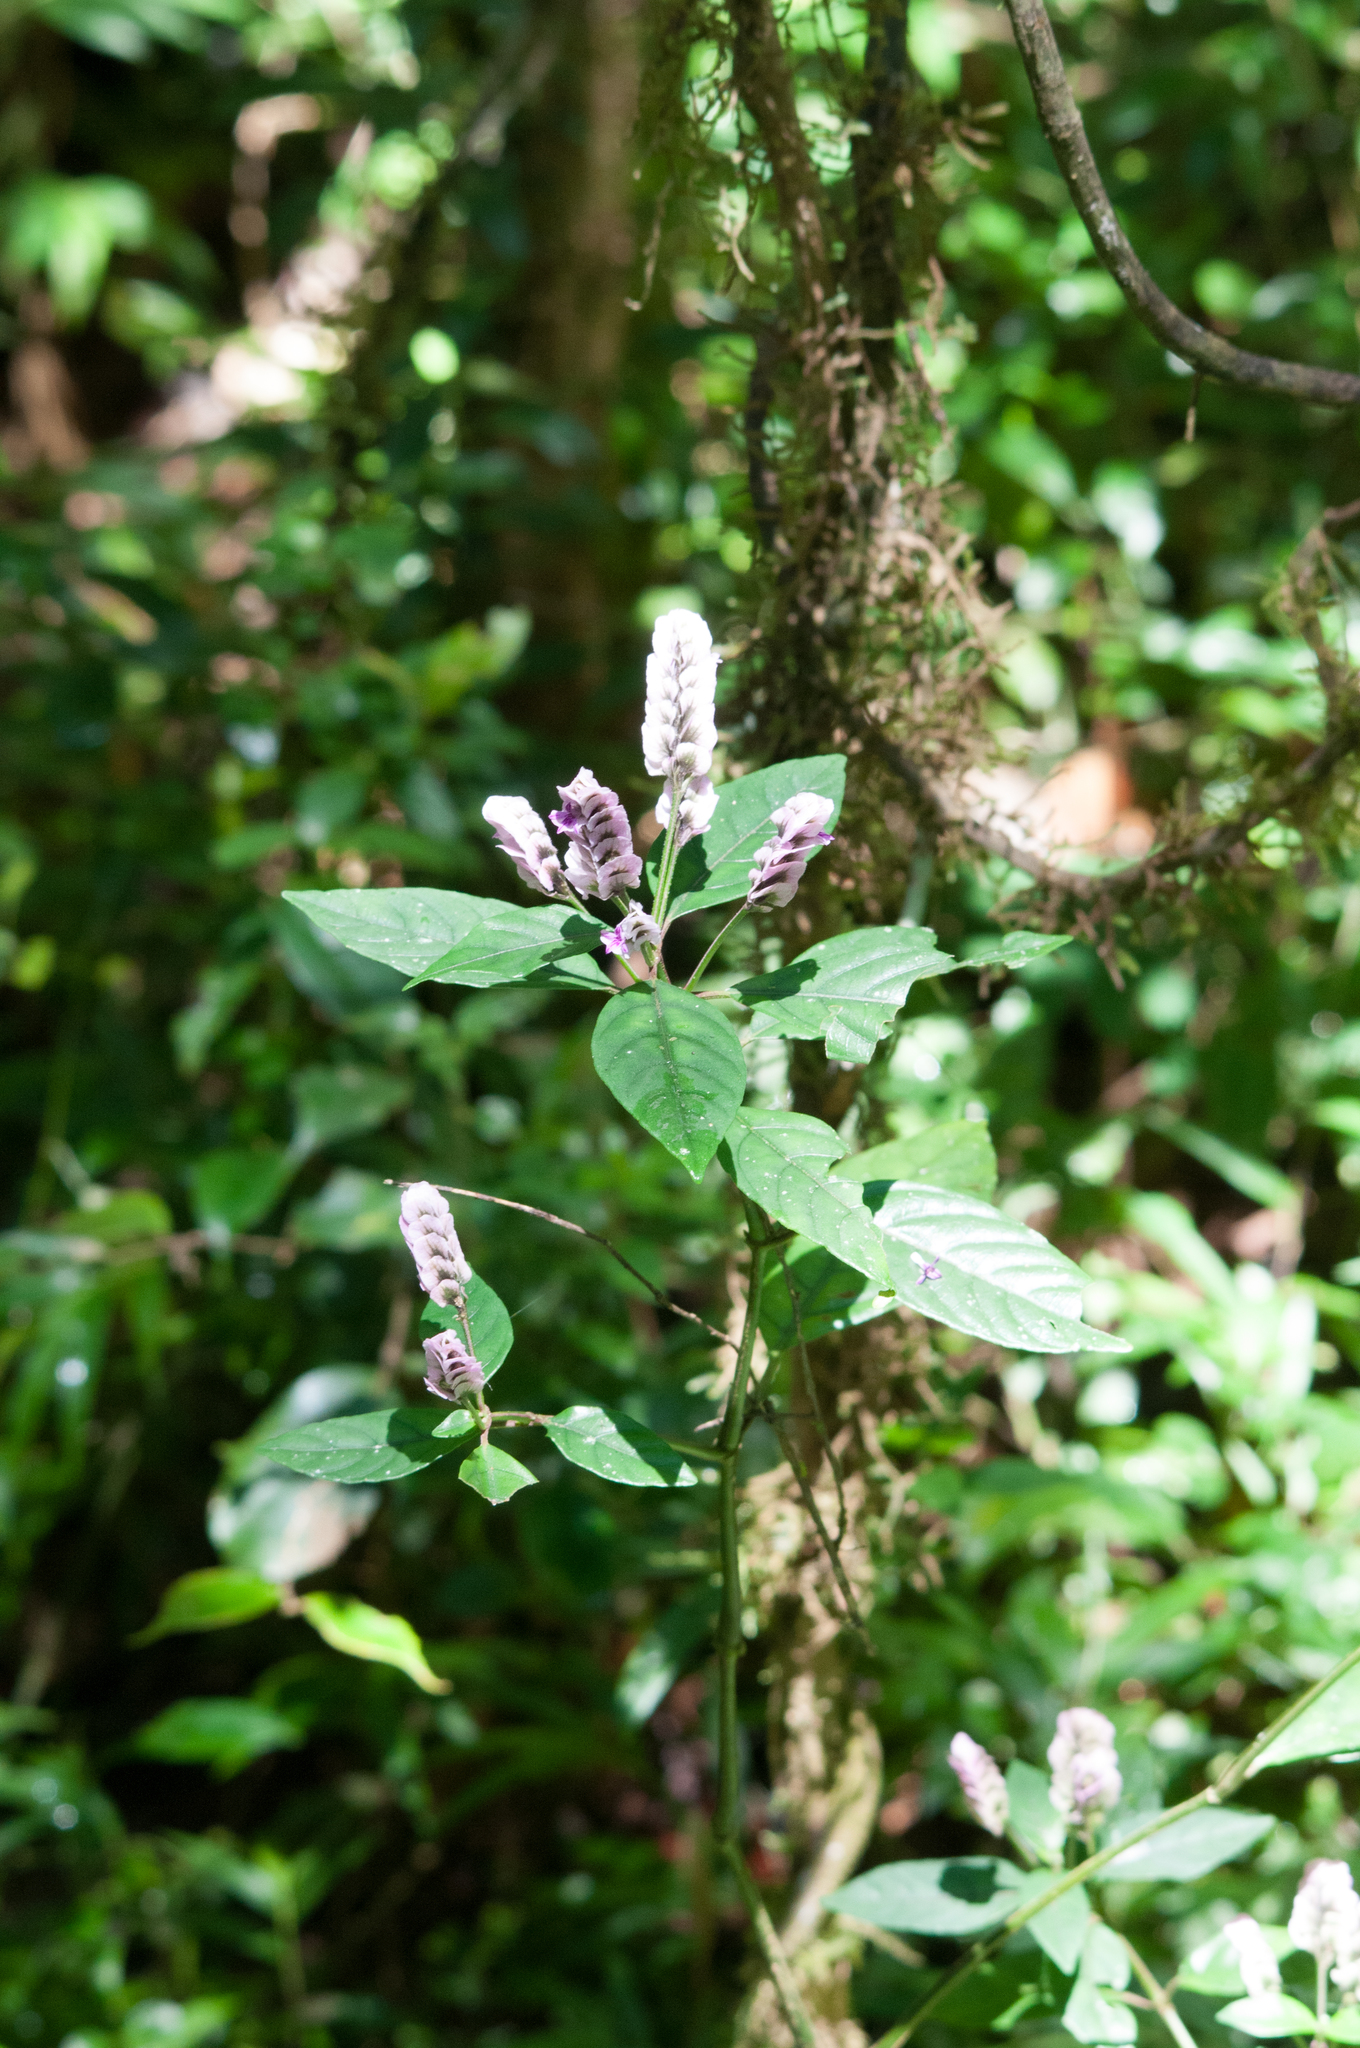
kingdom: Plantae
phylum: Tracheophyta
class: Magnoliopsida
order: Lamiales
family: Acanthaceae
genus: Justicia
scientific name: Justicia rhodoptera
